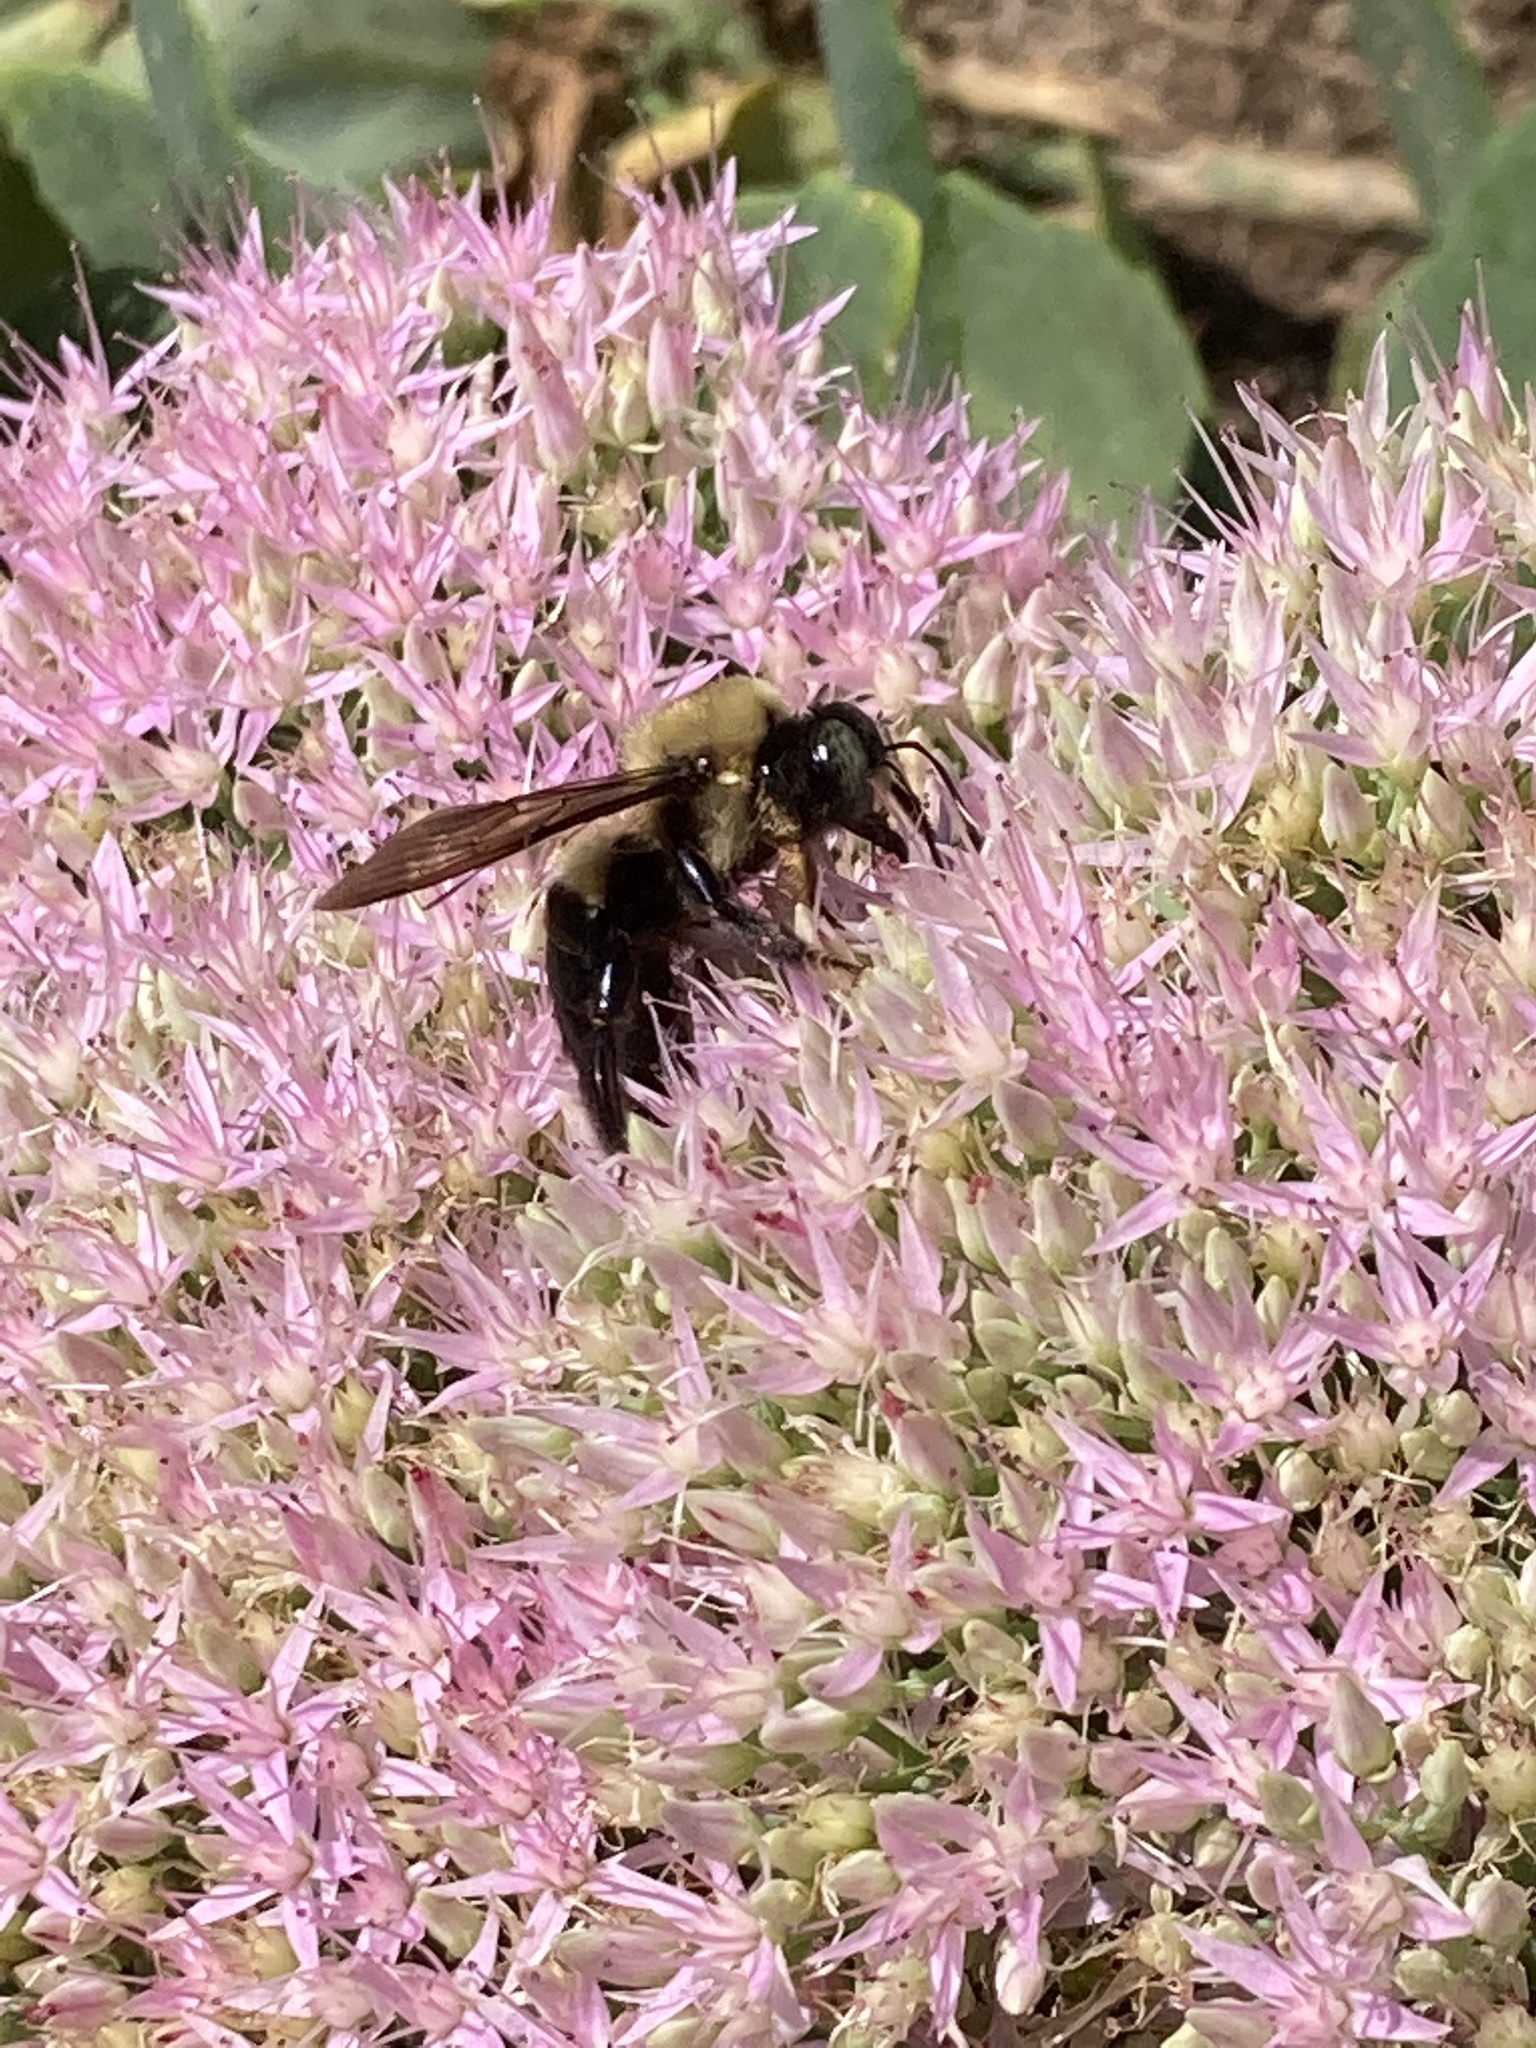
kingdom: Animalia
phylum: Arthropoda
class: Insecta
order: Hymenoptera
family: Apidae
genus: Xylocopa
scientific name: Xylocopa virginica
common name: Carpenter bee
